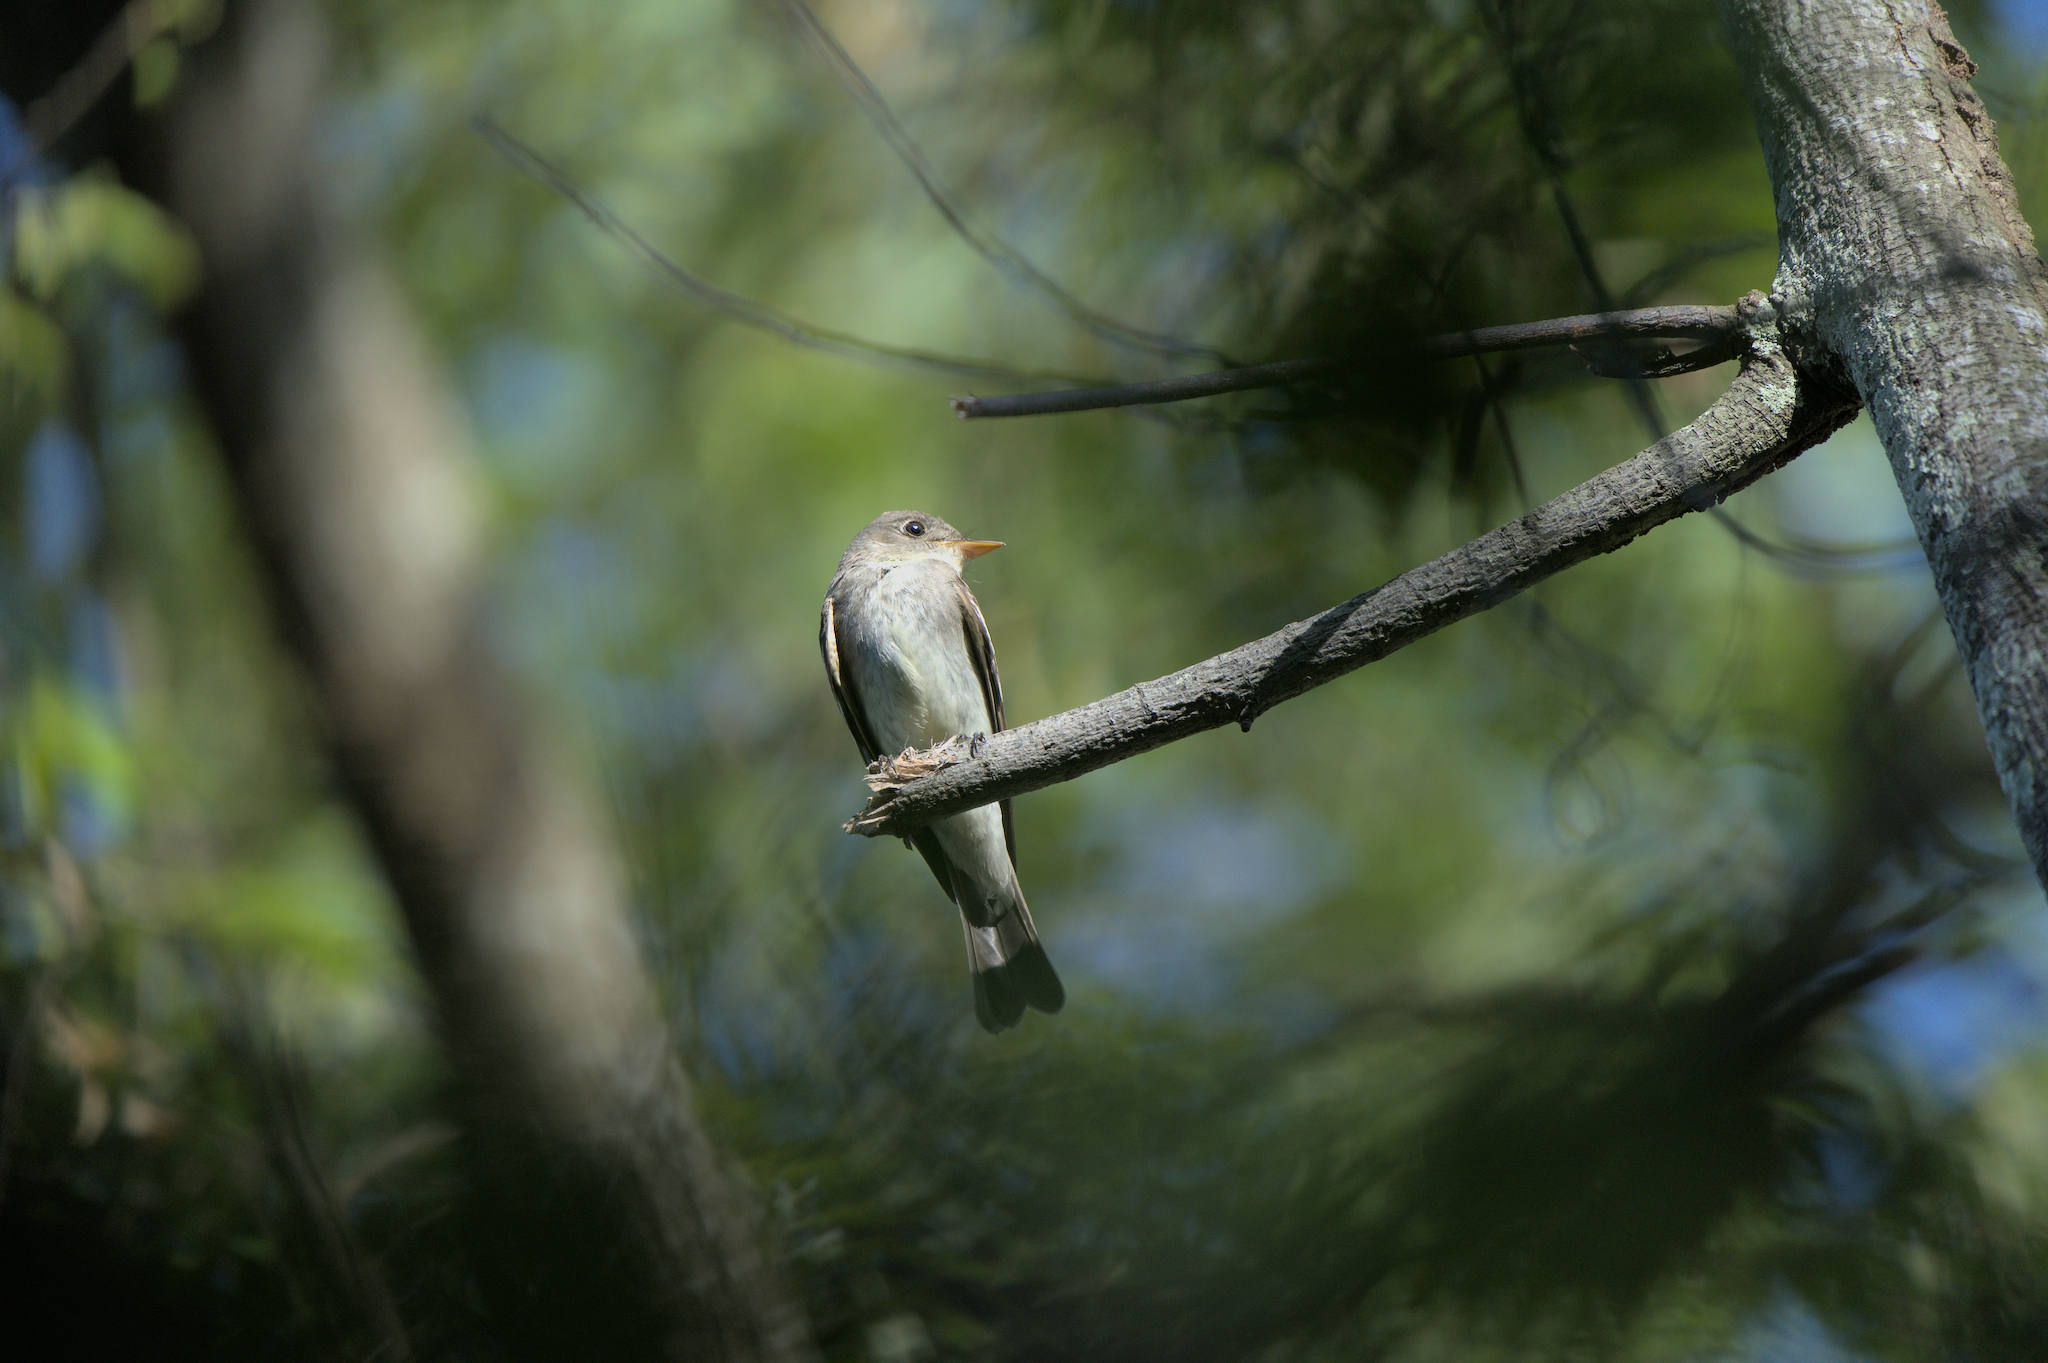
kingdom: Animalia
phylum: Chordata
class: Aves
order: Passeriformes
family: Tyrannidae
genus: Contopus
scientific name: Contopus virens
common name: Eastern wood-pewee
